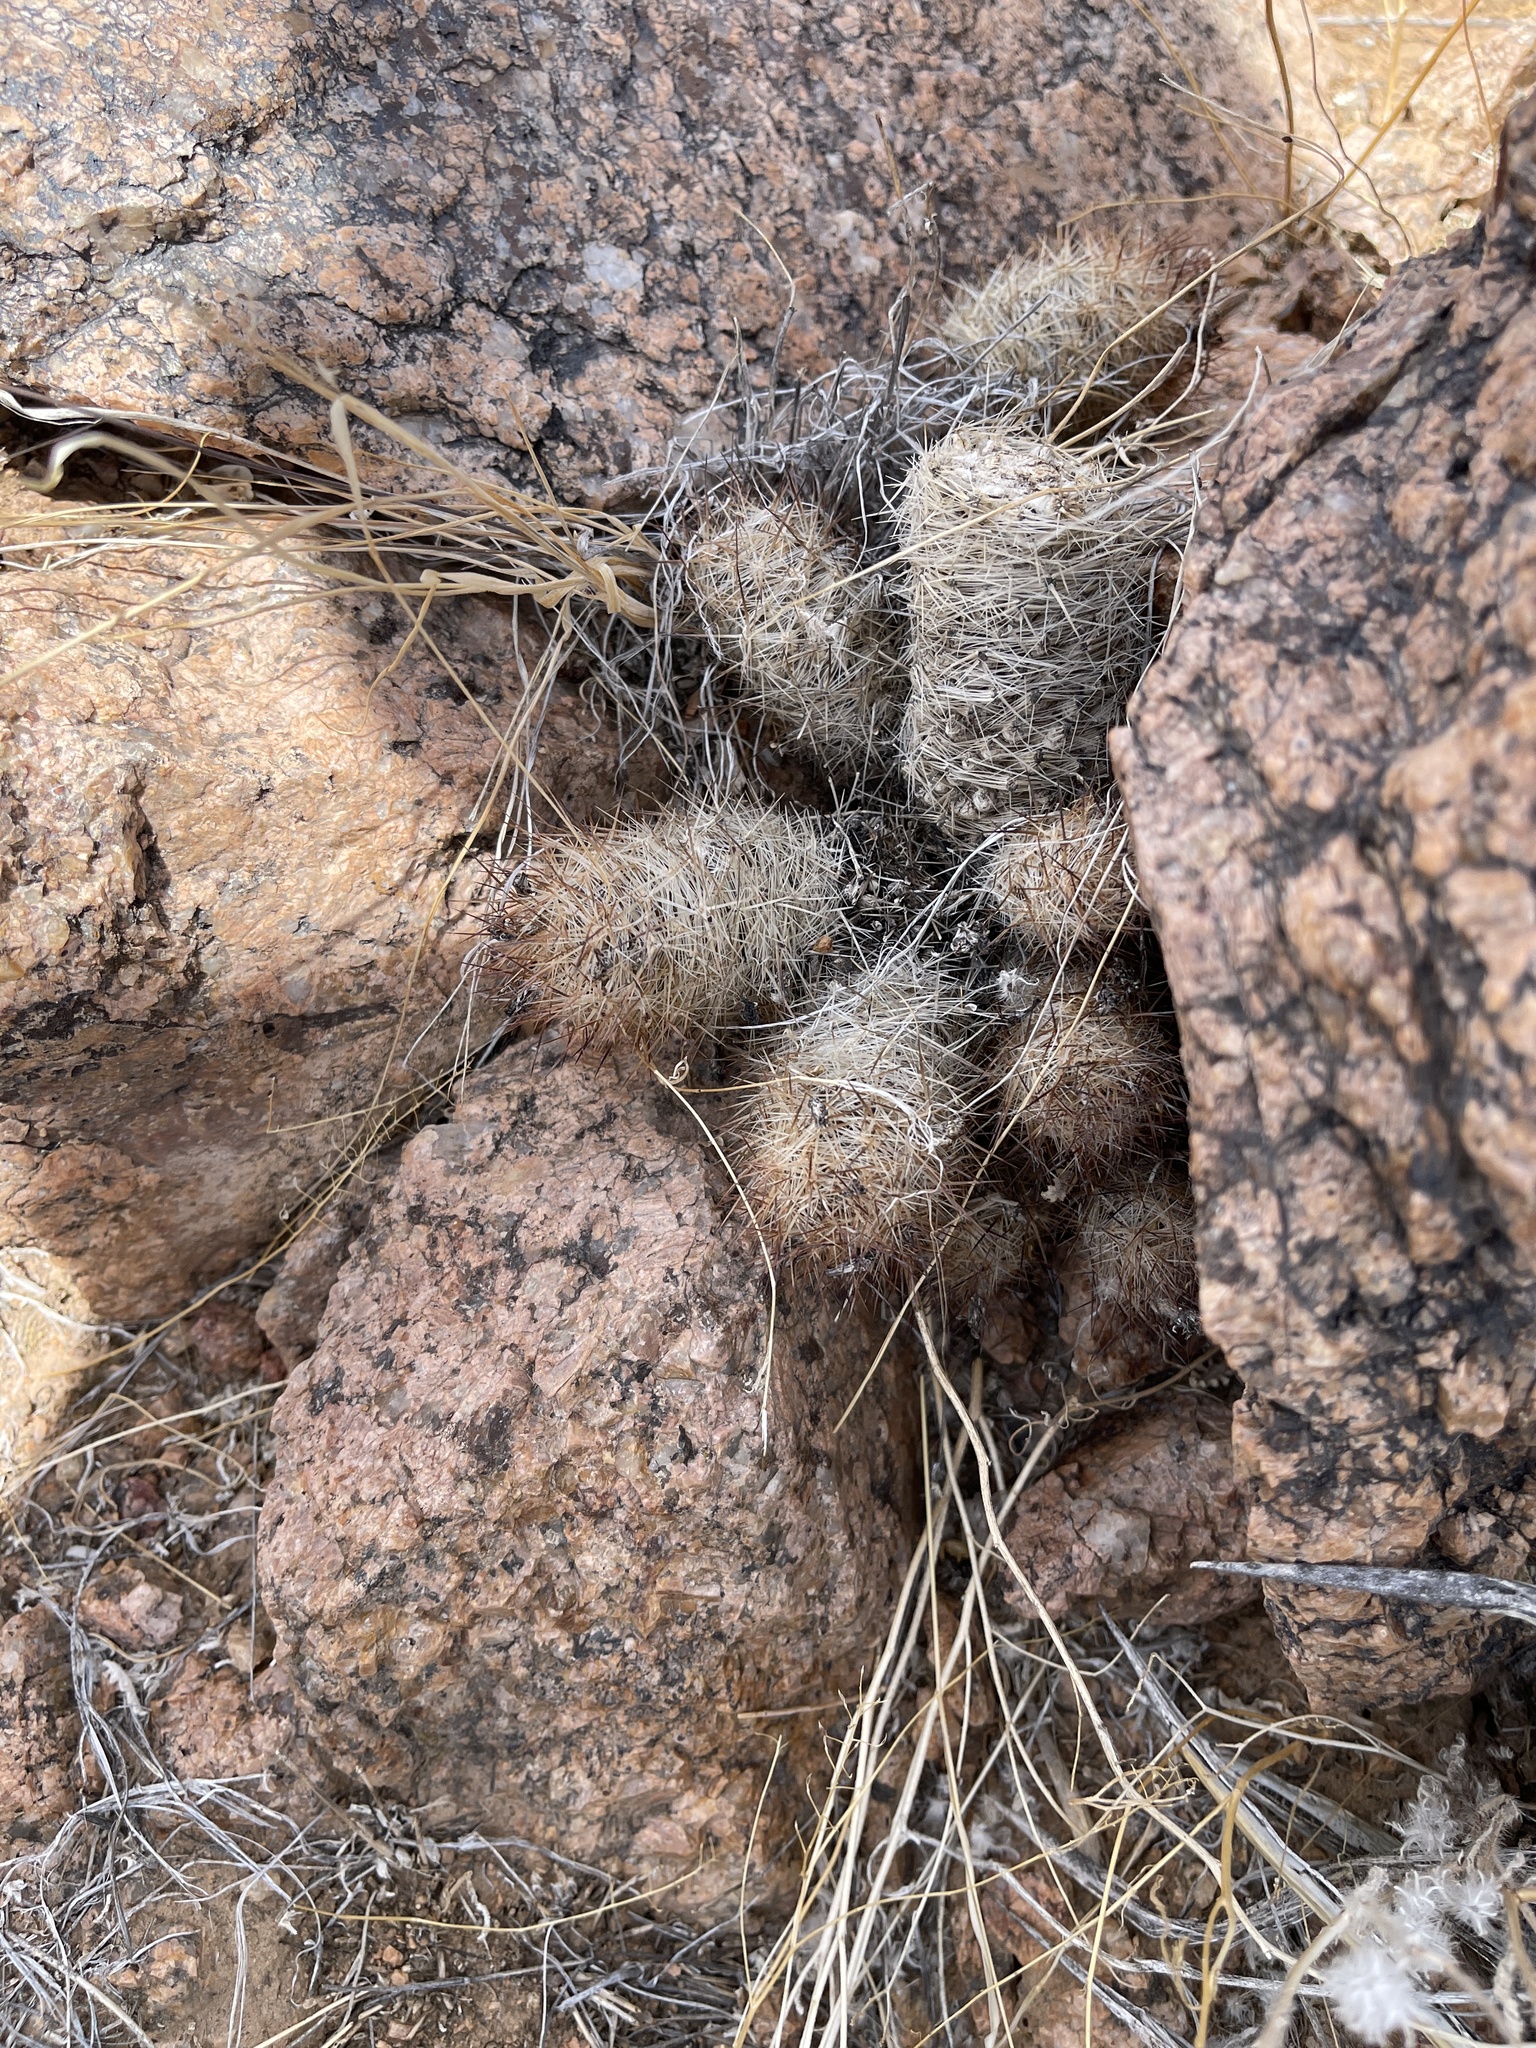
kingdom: Plantae
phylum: Tracheophyta
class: Magnoliopsida
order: Caryophyllales
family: Cactaceae
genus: Pelecyphora
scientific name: Pelecyphora tuberculosa
